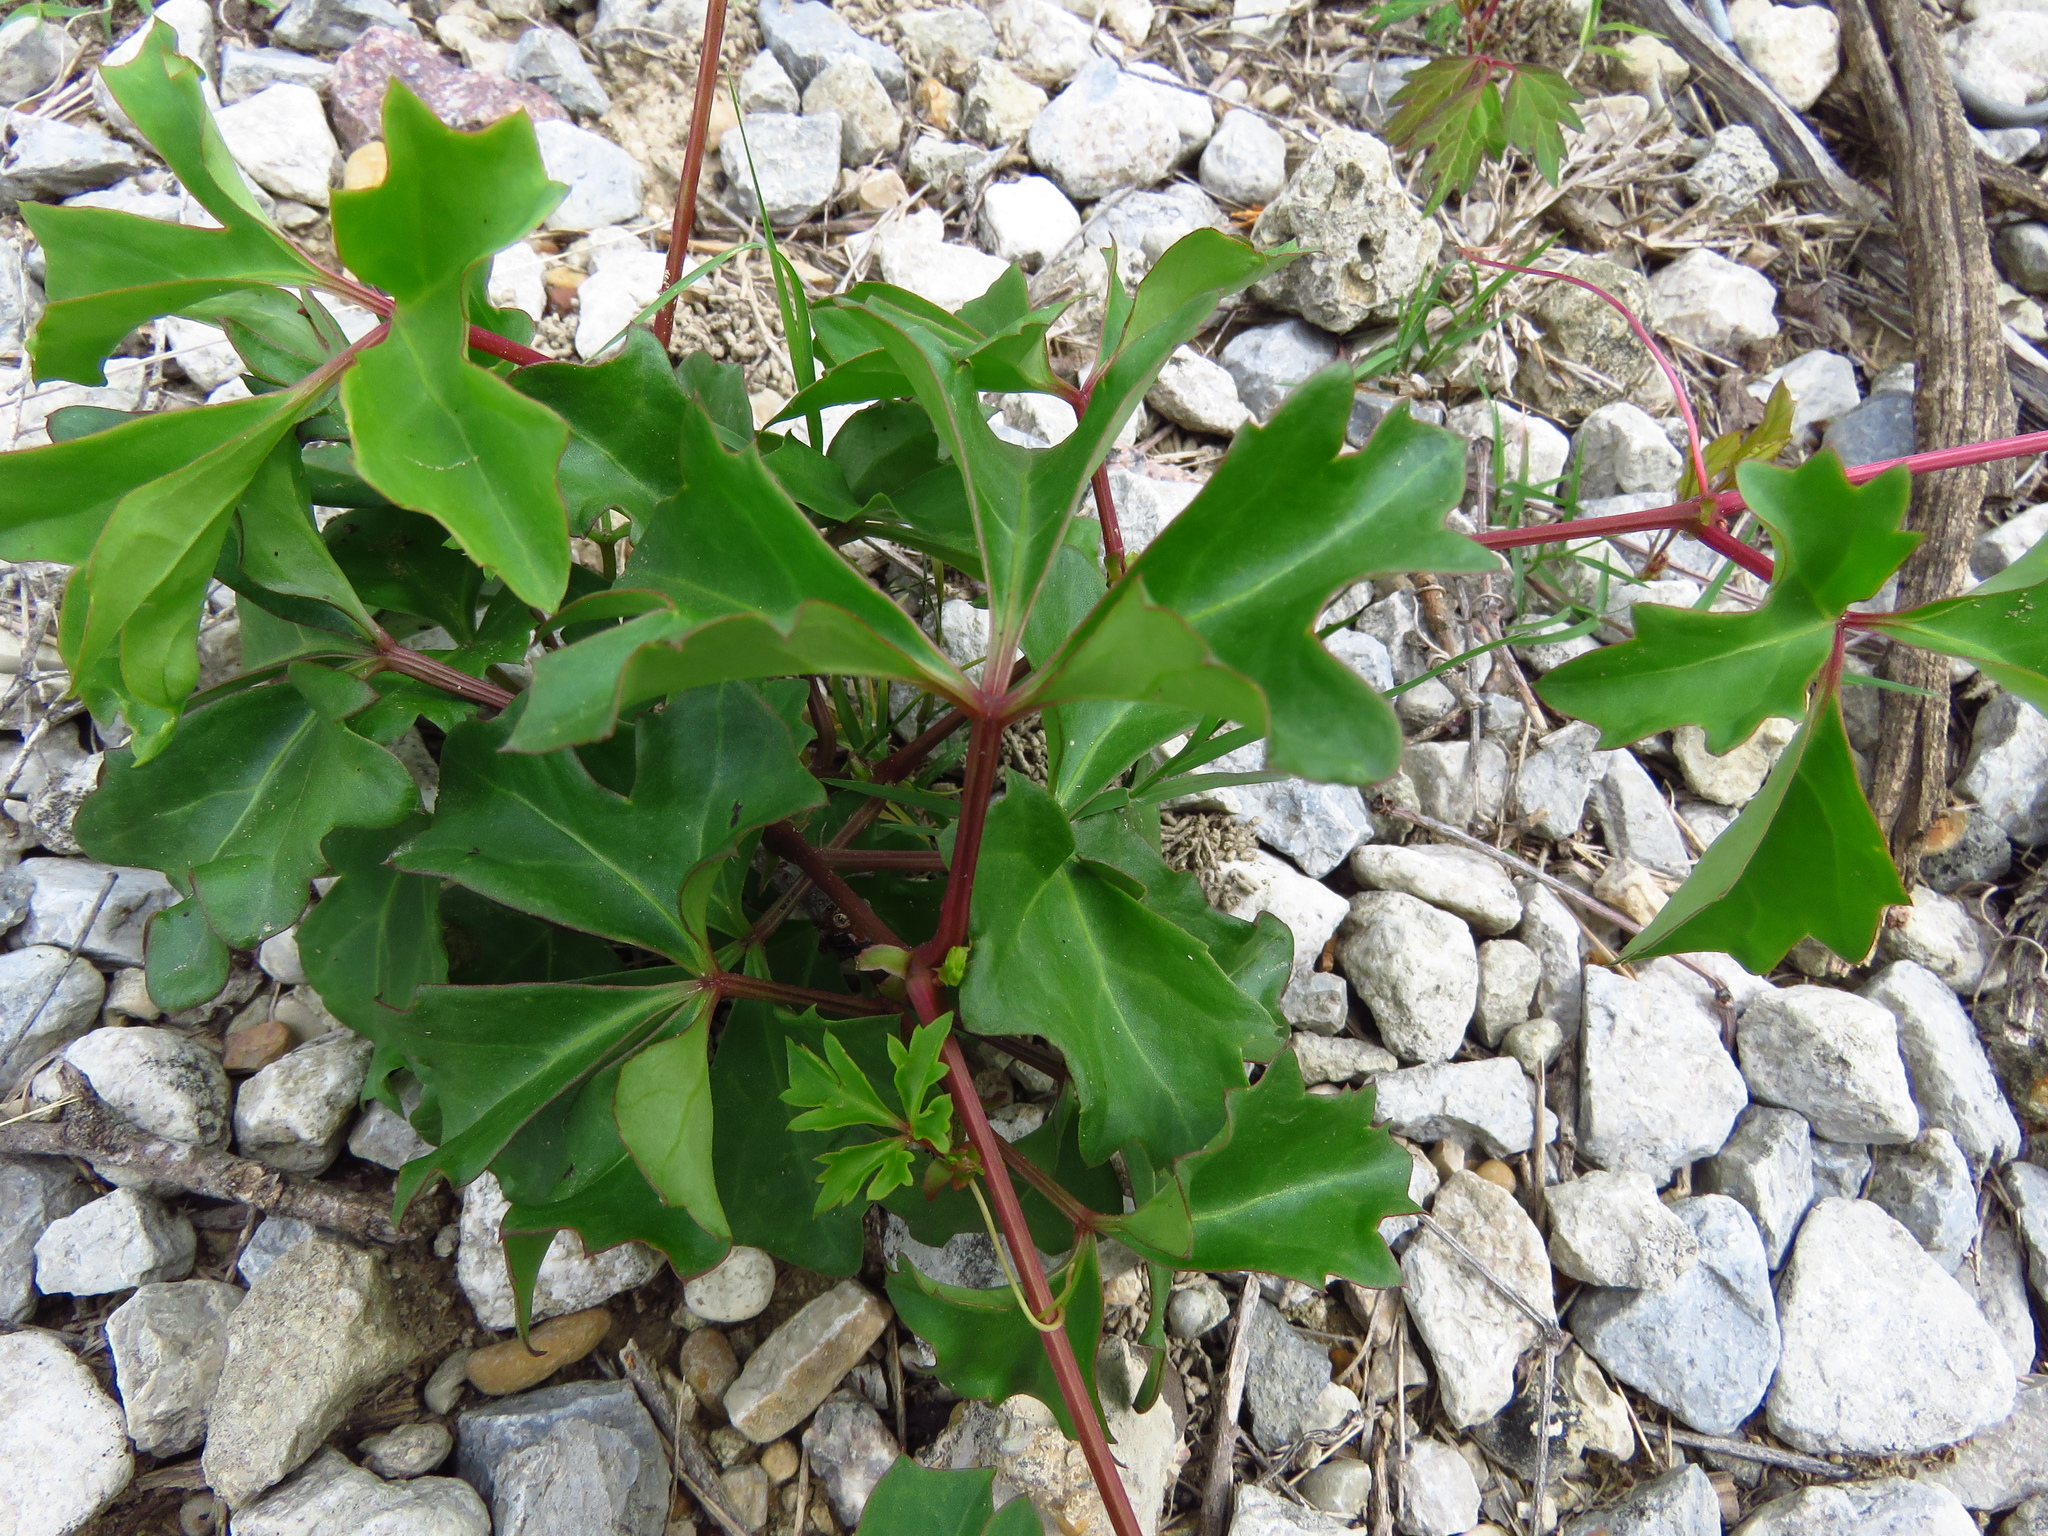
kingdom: Plantae
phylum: Tracheophyta
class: Magnoliopsida
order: Vitales
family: Vitaceae
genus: Cissus
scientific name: Cissus trifoliata
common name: Vine-sorrel
